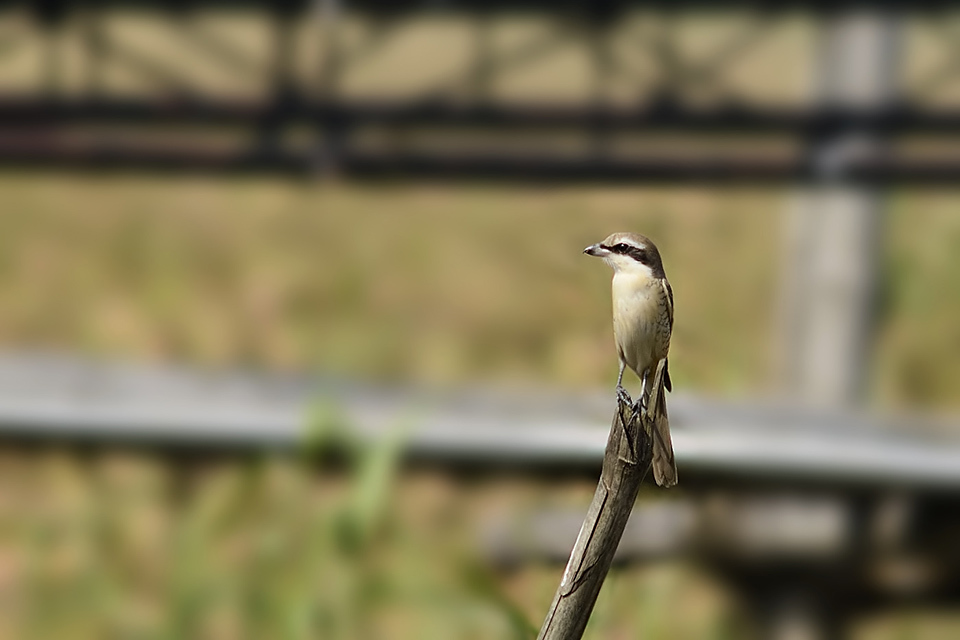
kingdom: Animalia
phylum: Chordata
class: Aves
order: Passeriformes
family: Laniidae
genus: Lanius
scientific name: Lanius cristatus
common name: Brown shrike
